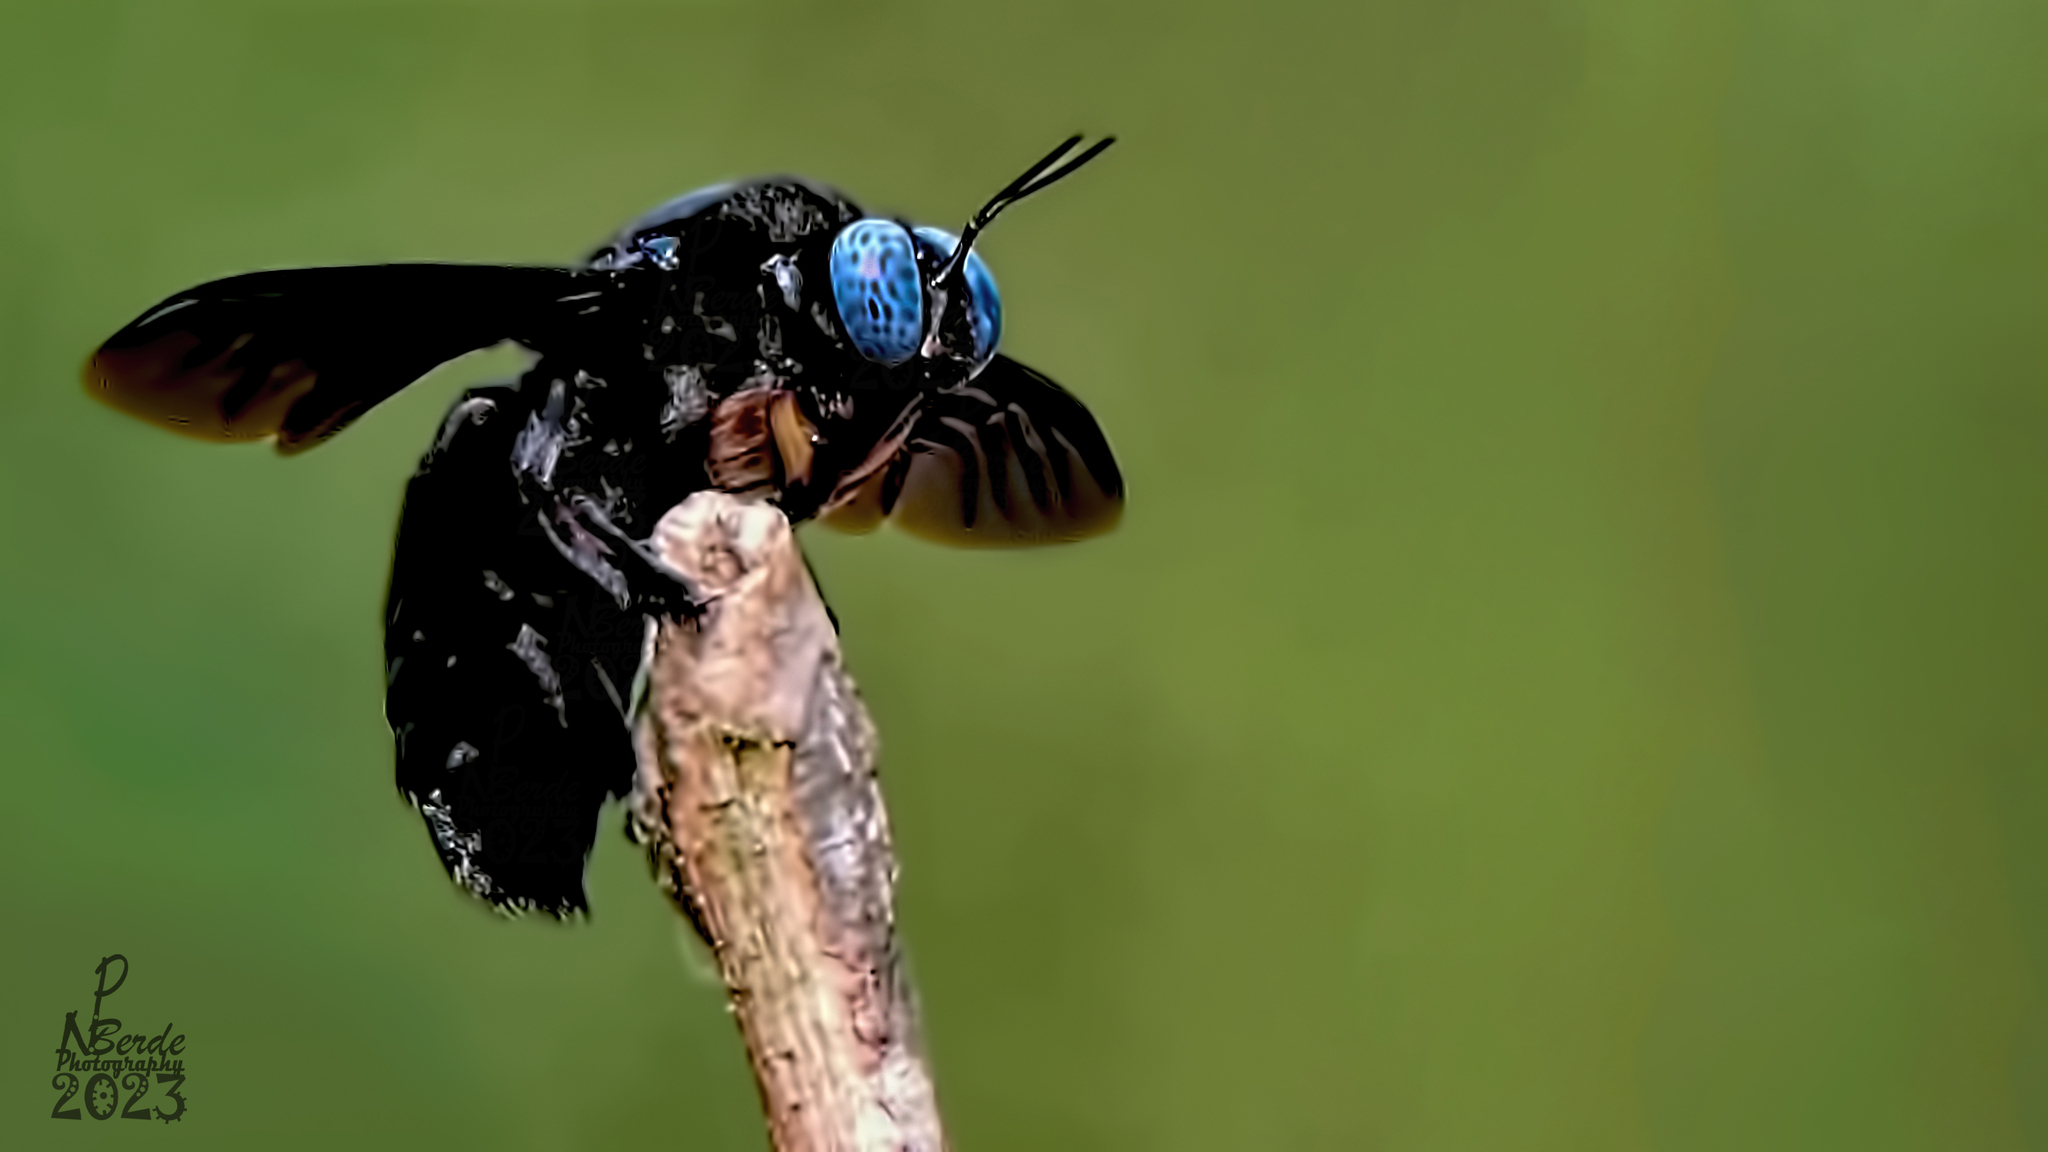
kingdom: Animalia
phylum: Arthropoda
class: Insecta
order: Hymenoptera
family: Apidae
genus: Xylocopa
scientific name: Xylocopa tenuiscapa
